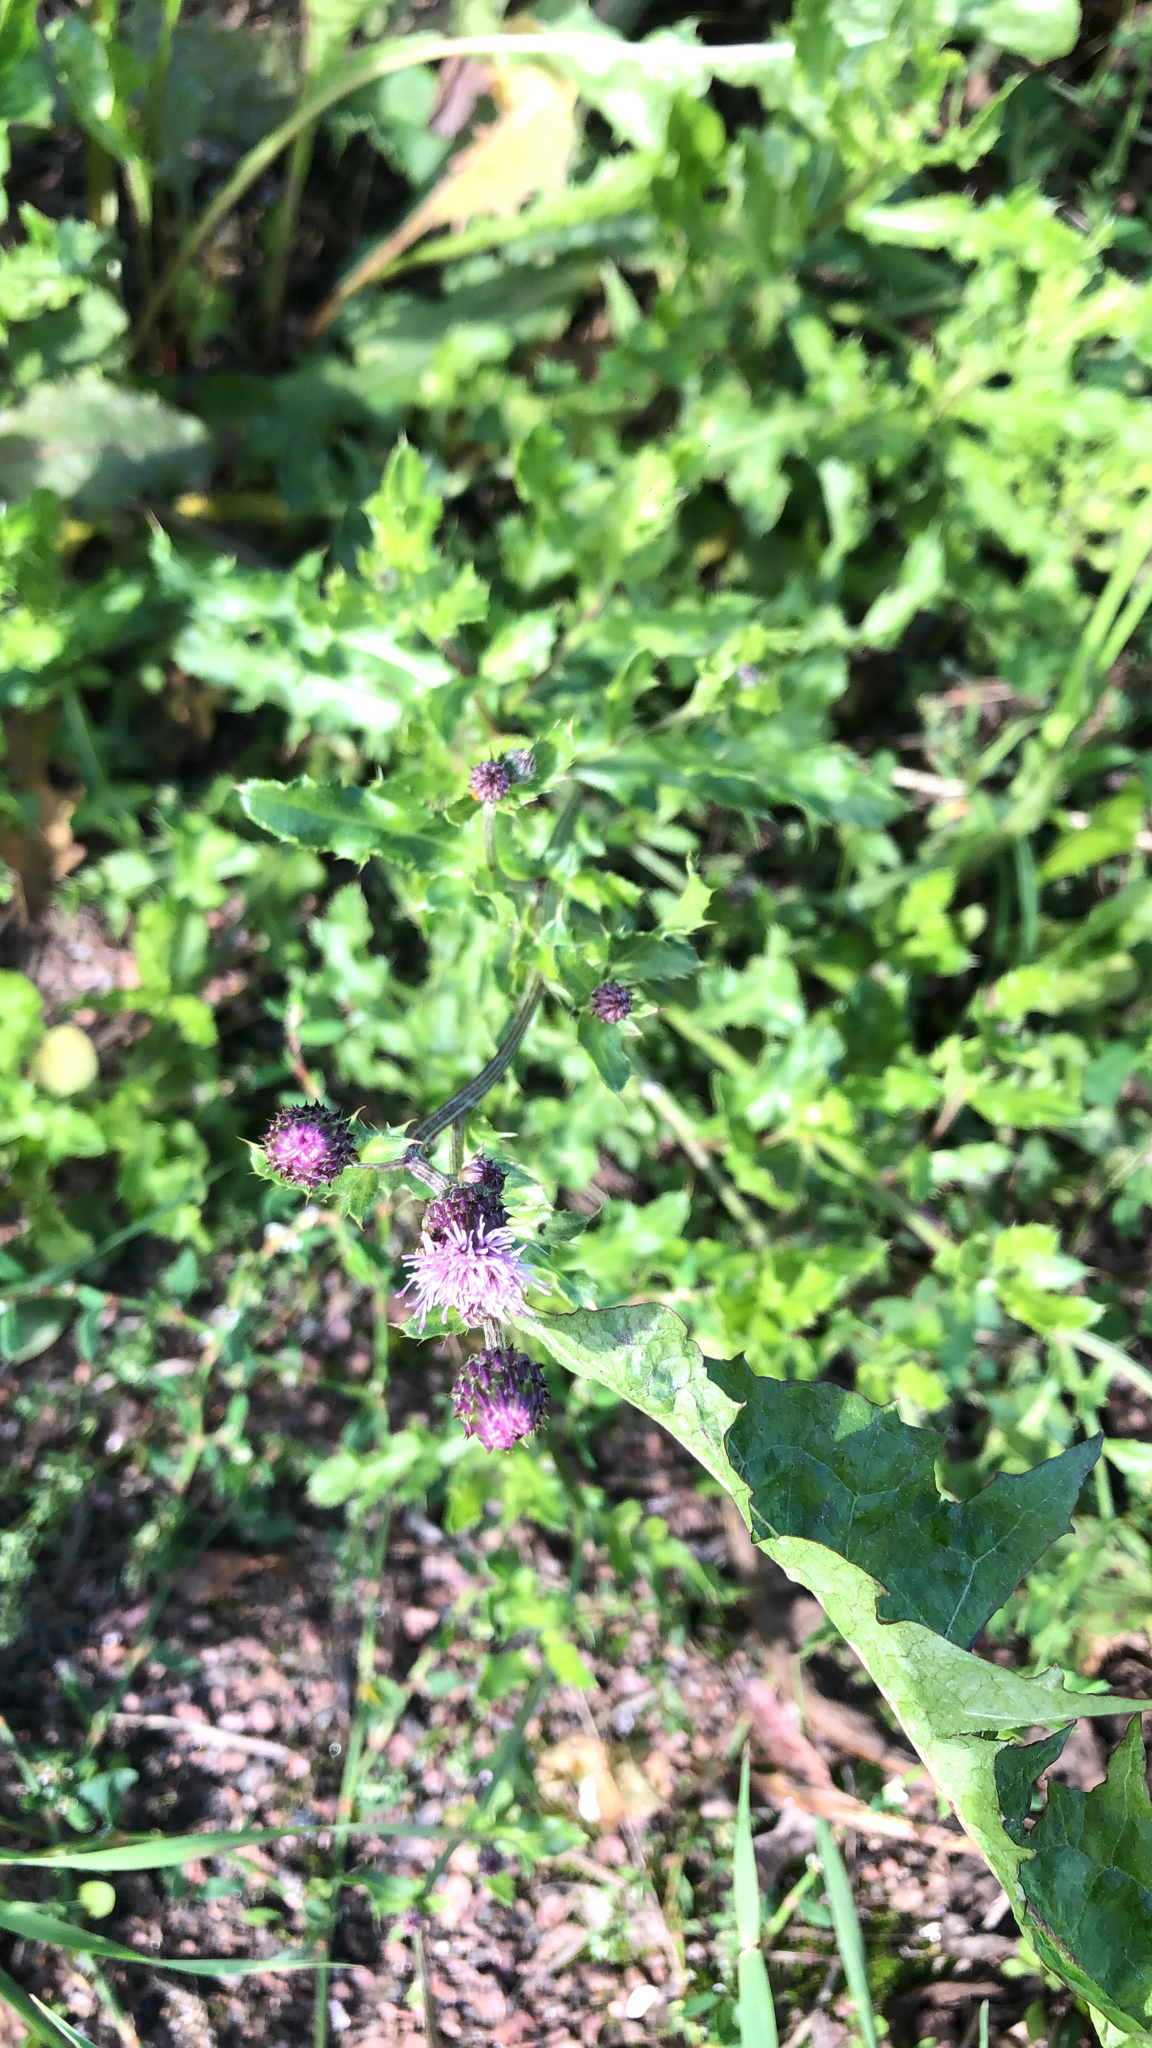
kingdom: Plantae
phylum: Tracheophyta
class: Magnoliopsida
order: Asterales
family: Asteraceae
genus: Cirsium
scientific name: Cirsium arvense
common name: Creeping thistle
